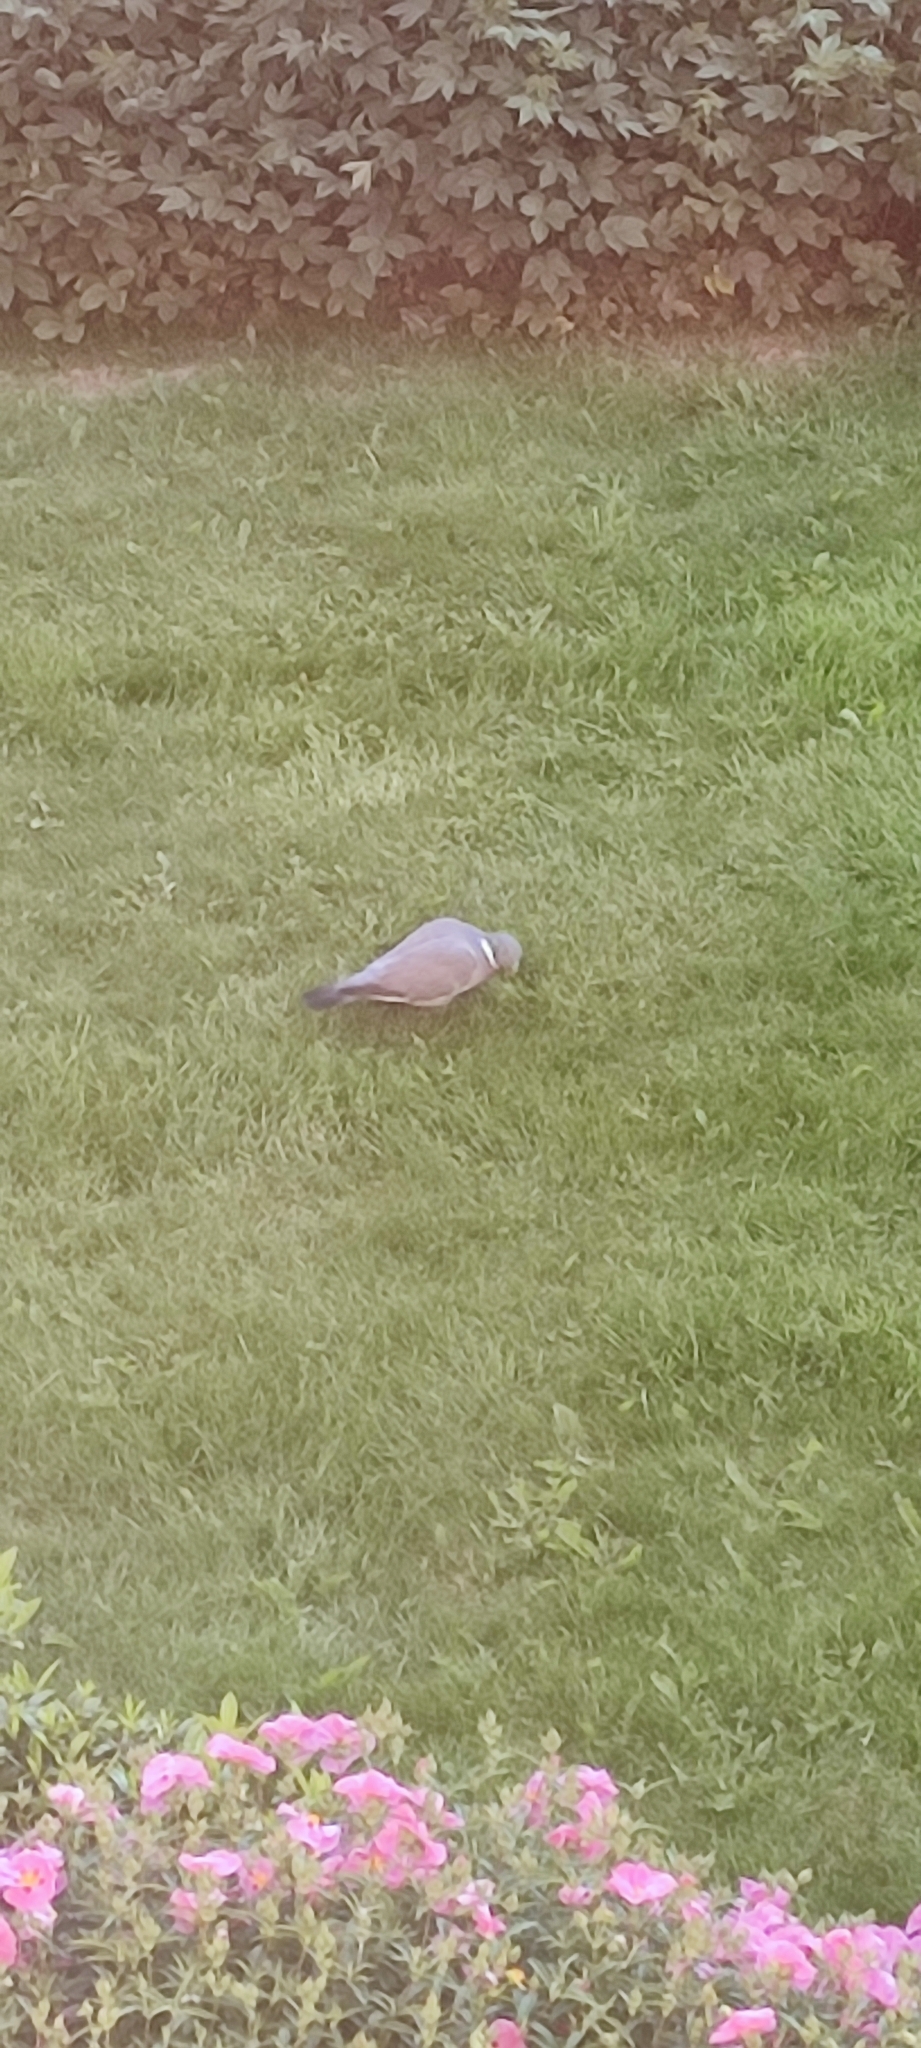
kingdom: Animalia
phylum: Chordata
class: Aves
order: Columbiformes
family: Columbidae
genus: Columba
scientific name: Columba palumbus
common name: Common wood pigeon
